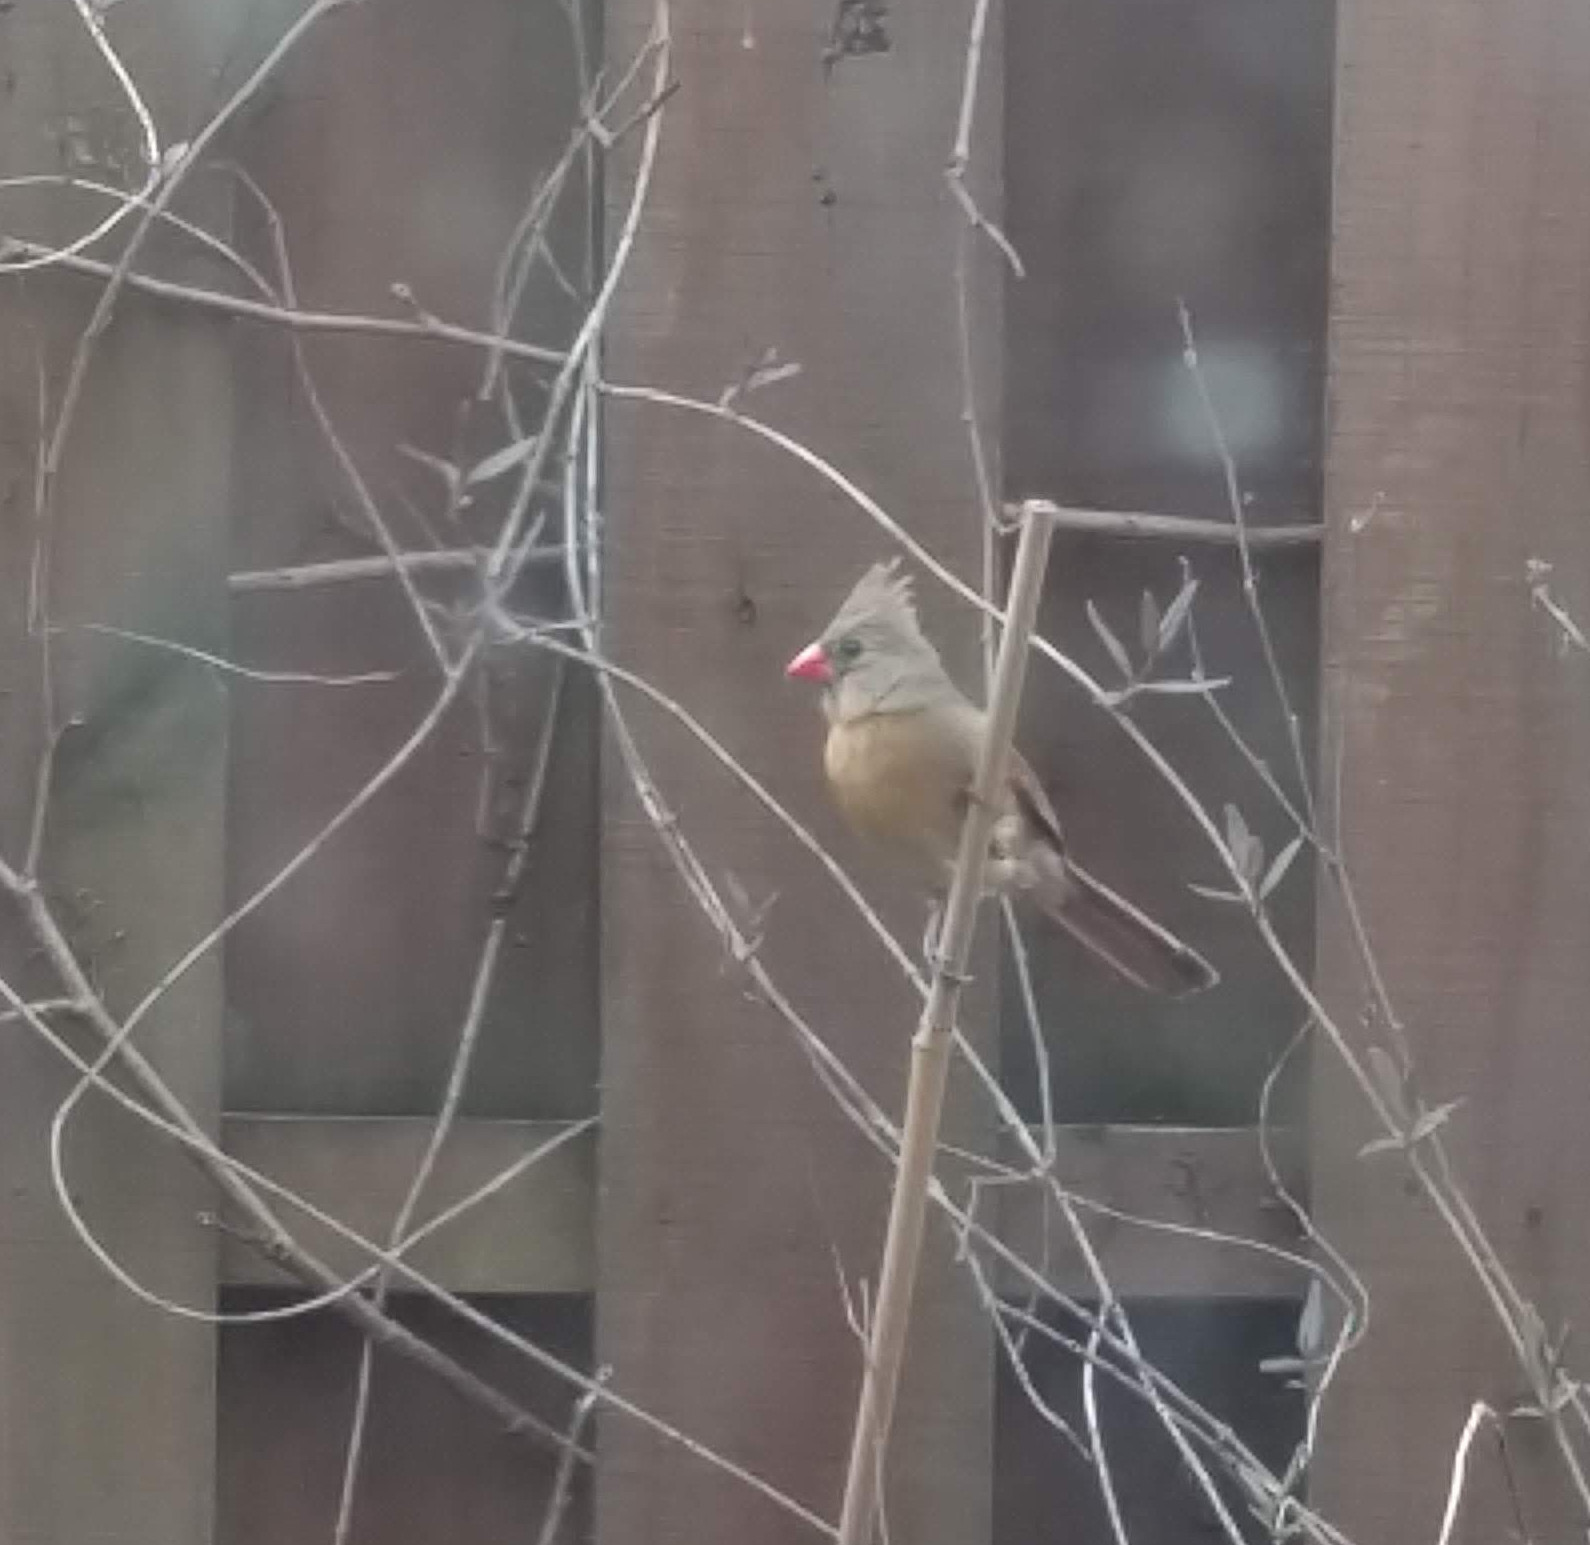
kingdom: Animalia
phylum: Chordata
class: Aves
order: Passeriformes
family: Cardinalidae
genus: Cardinalis
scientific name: Cardinalis cardinalis
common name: Northern cardinal
